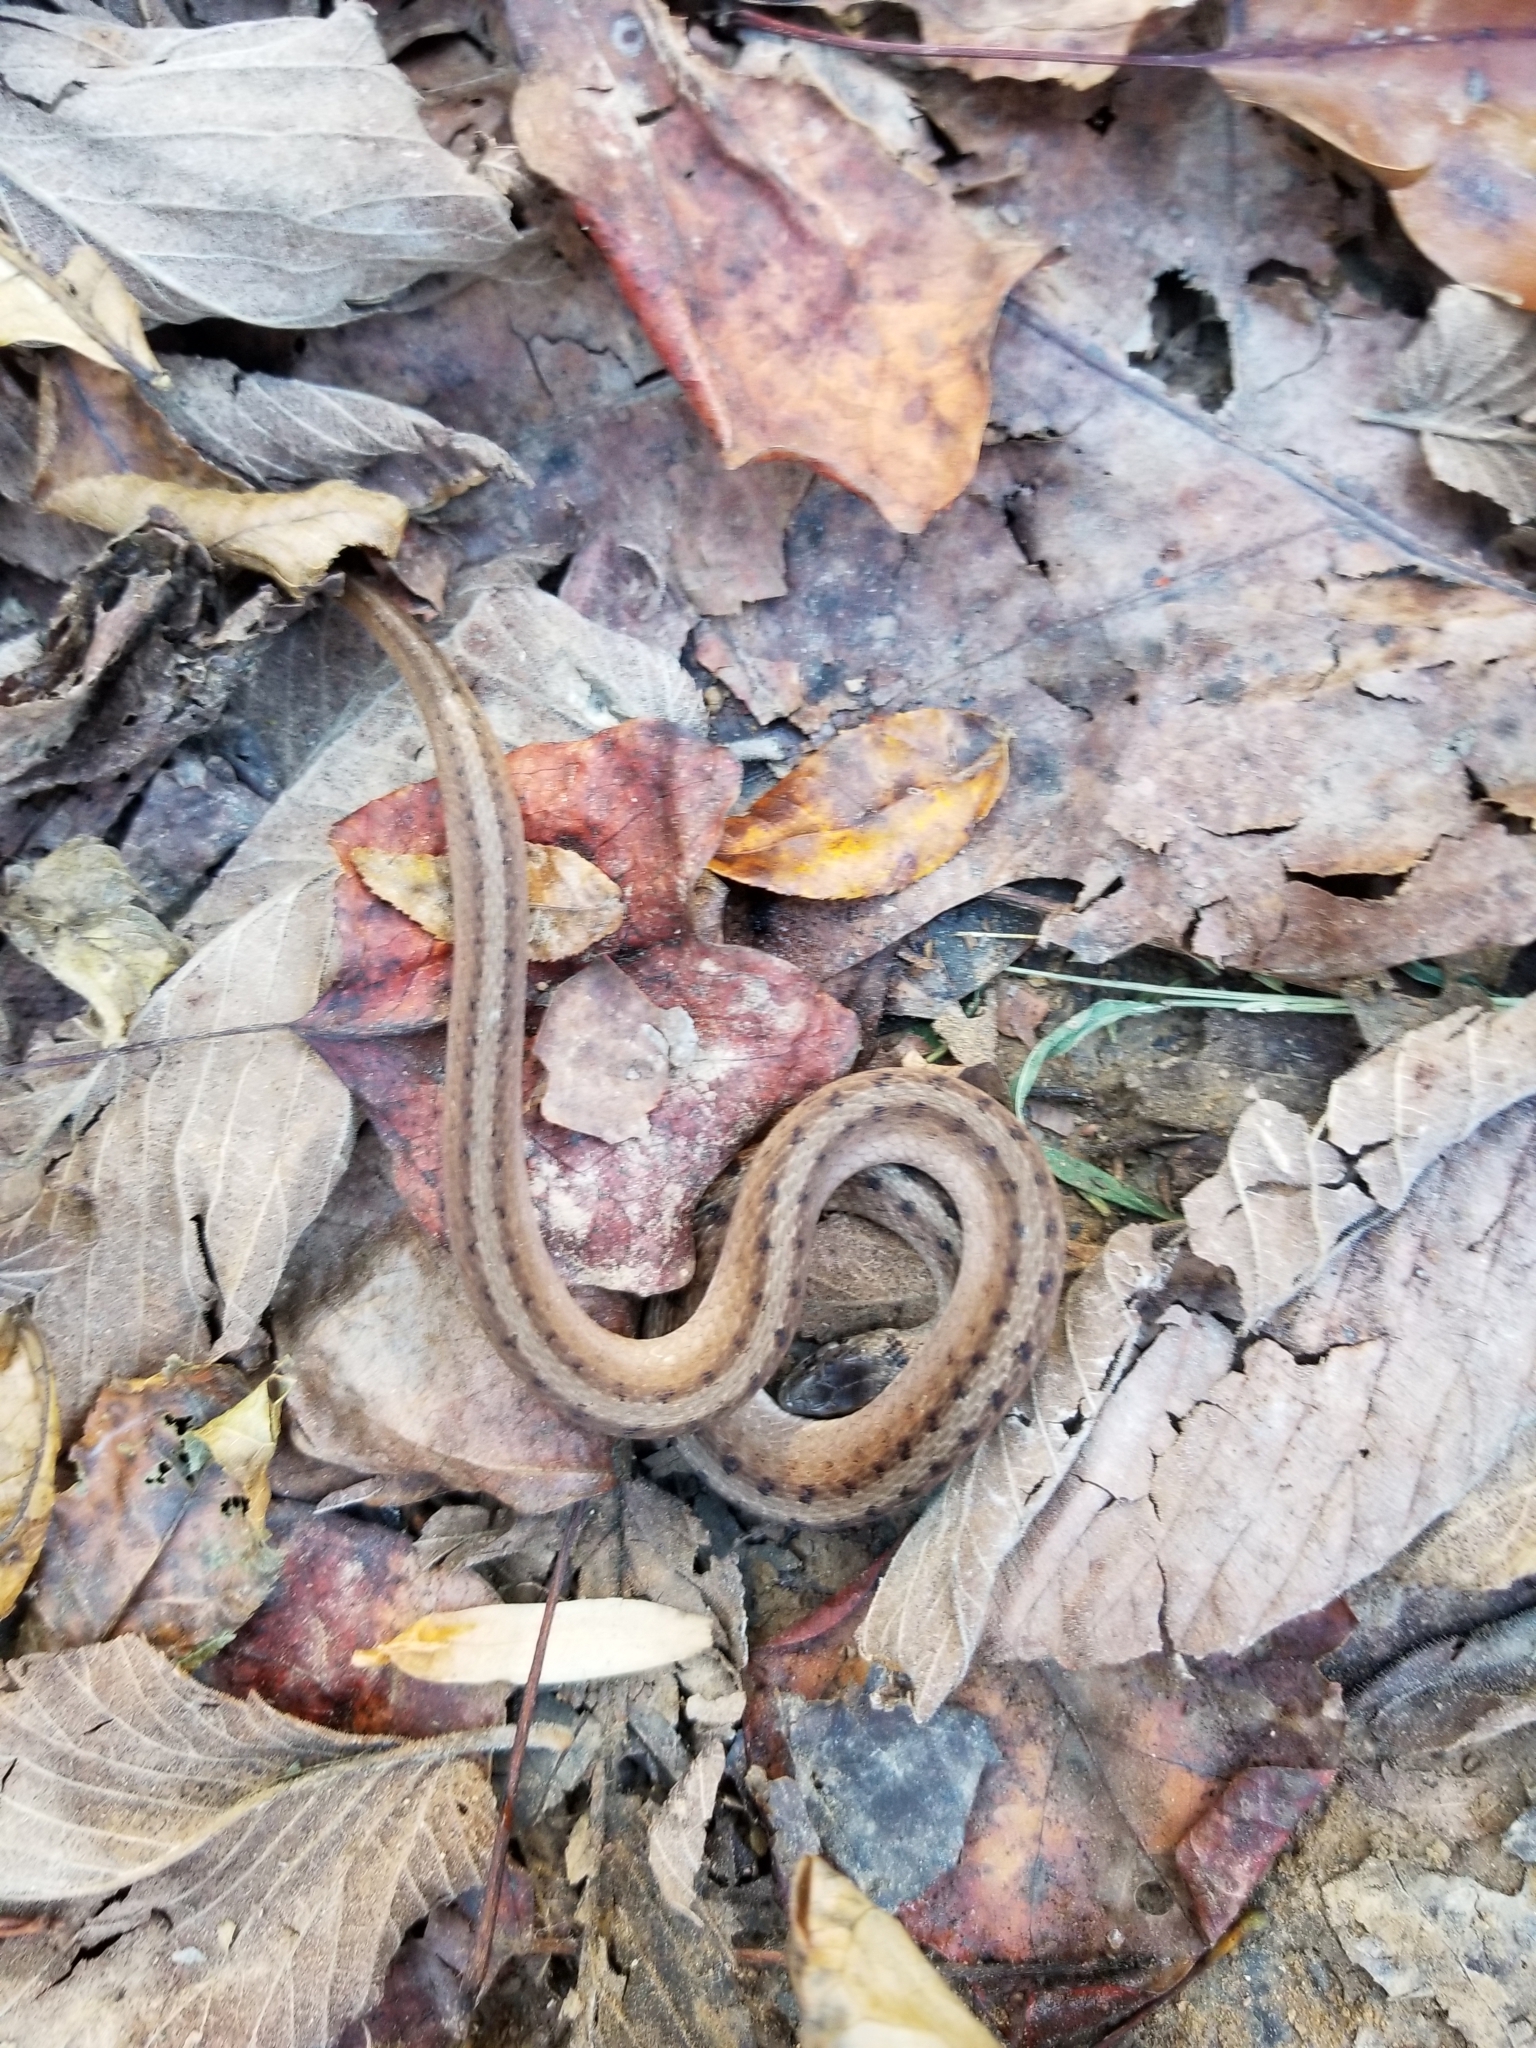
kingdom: Animalia
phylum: Chordata
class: Squamata
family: Colubridae
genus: Storeria
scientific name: Storeria dekayi
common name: (dekay’s) brown snake
